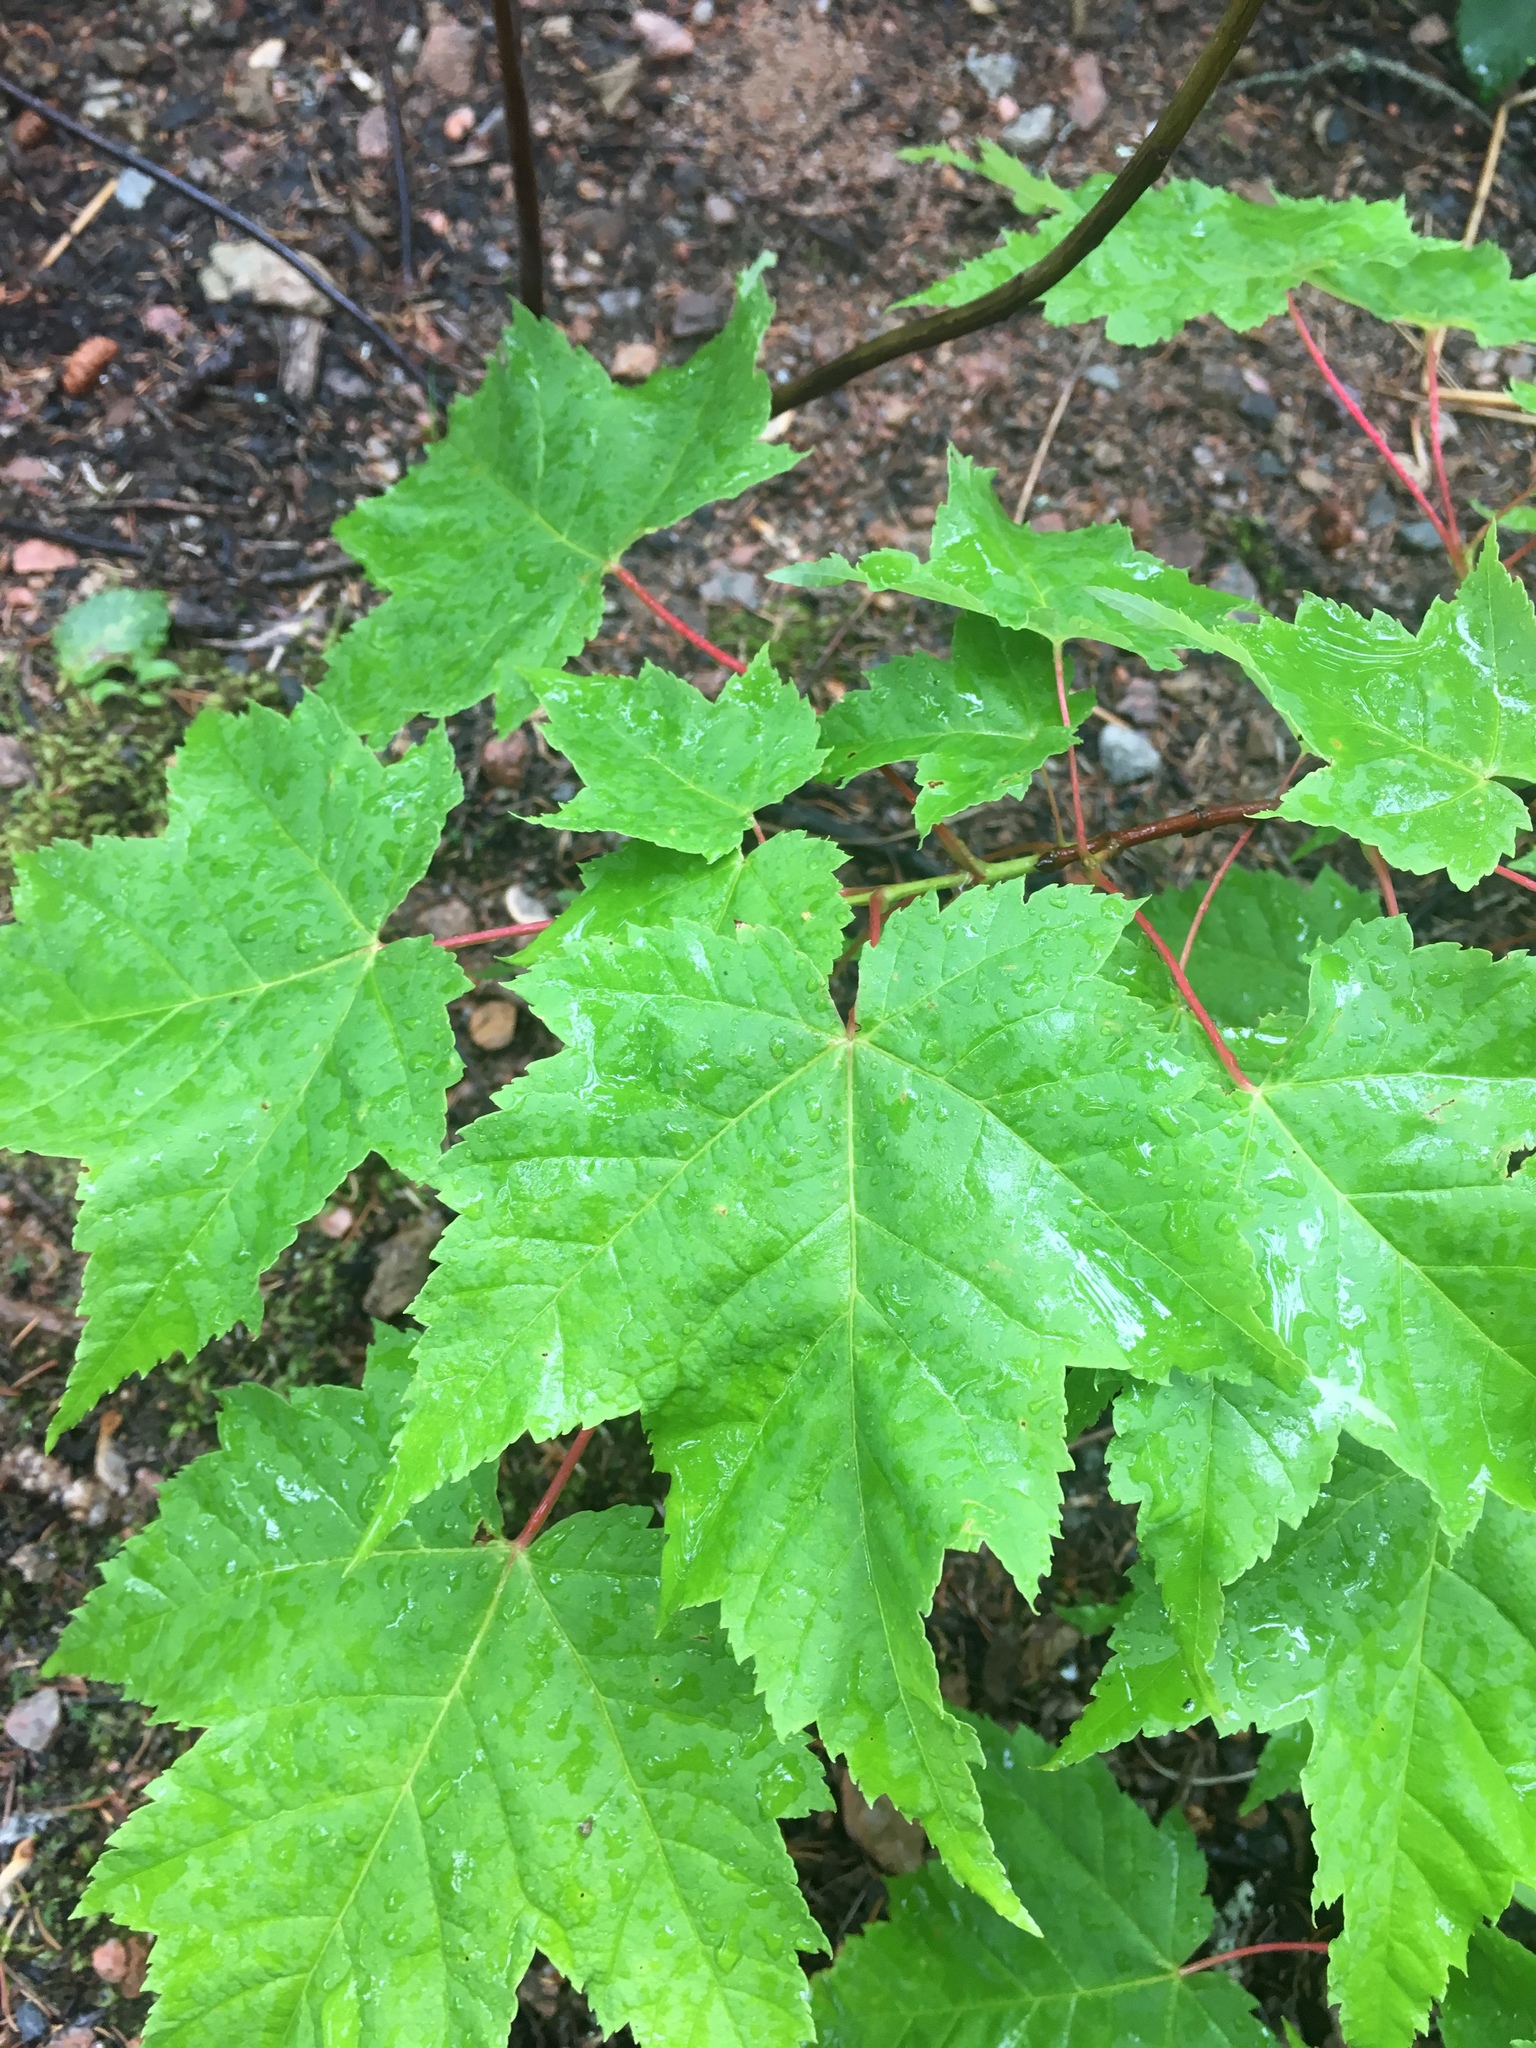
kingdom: Plantae
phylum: Tracheophyta
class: Magnoliopsida
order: Sapindales
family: Sapindaceae
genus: Acer
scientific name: Acer rubrum
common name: Red maple
